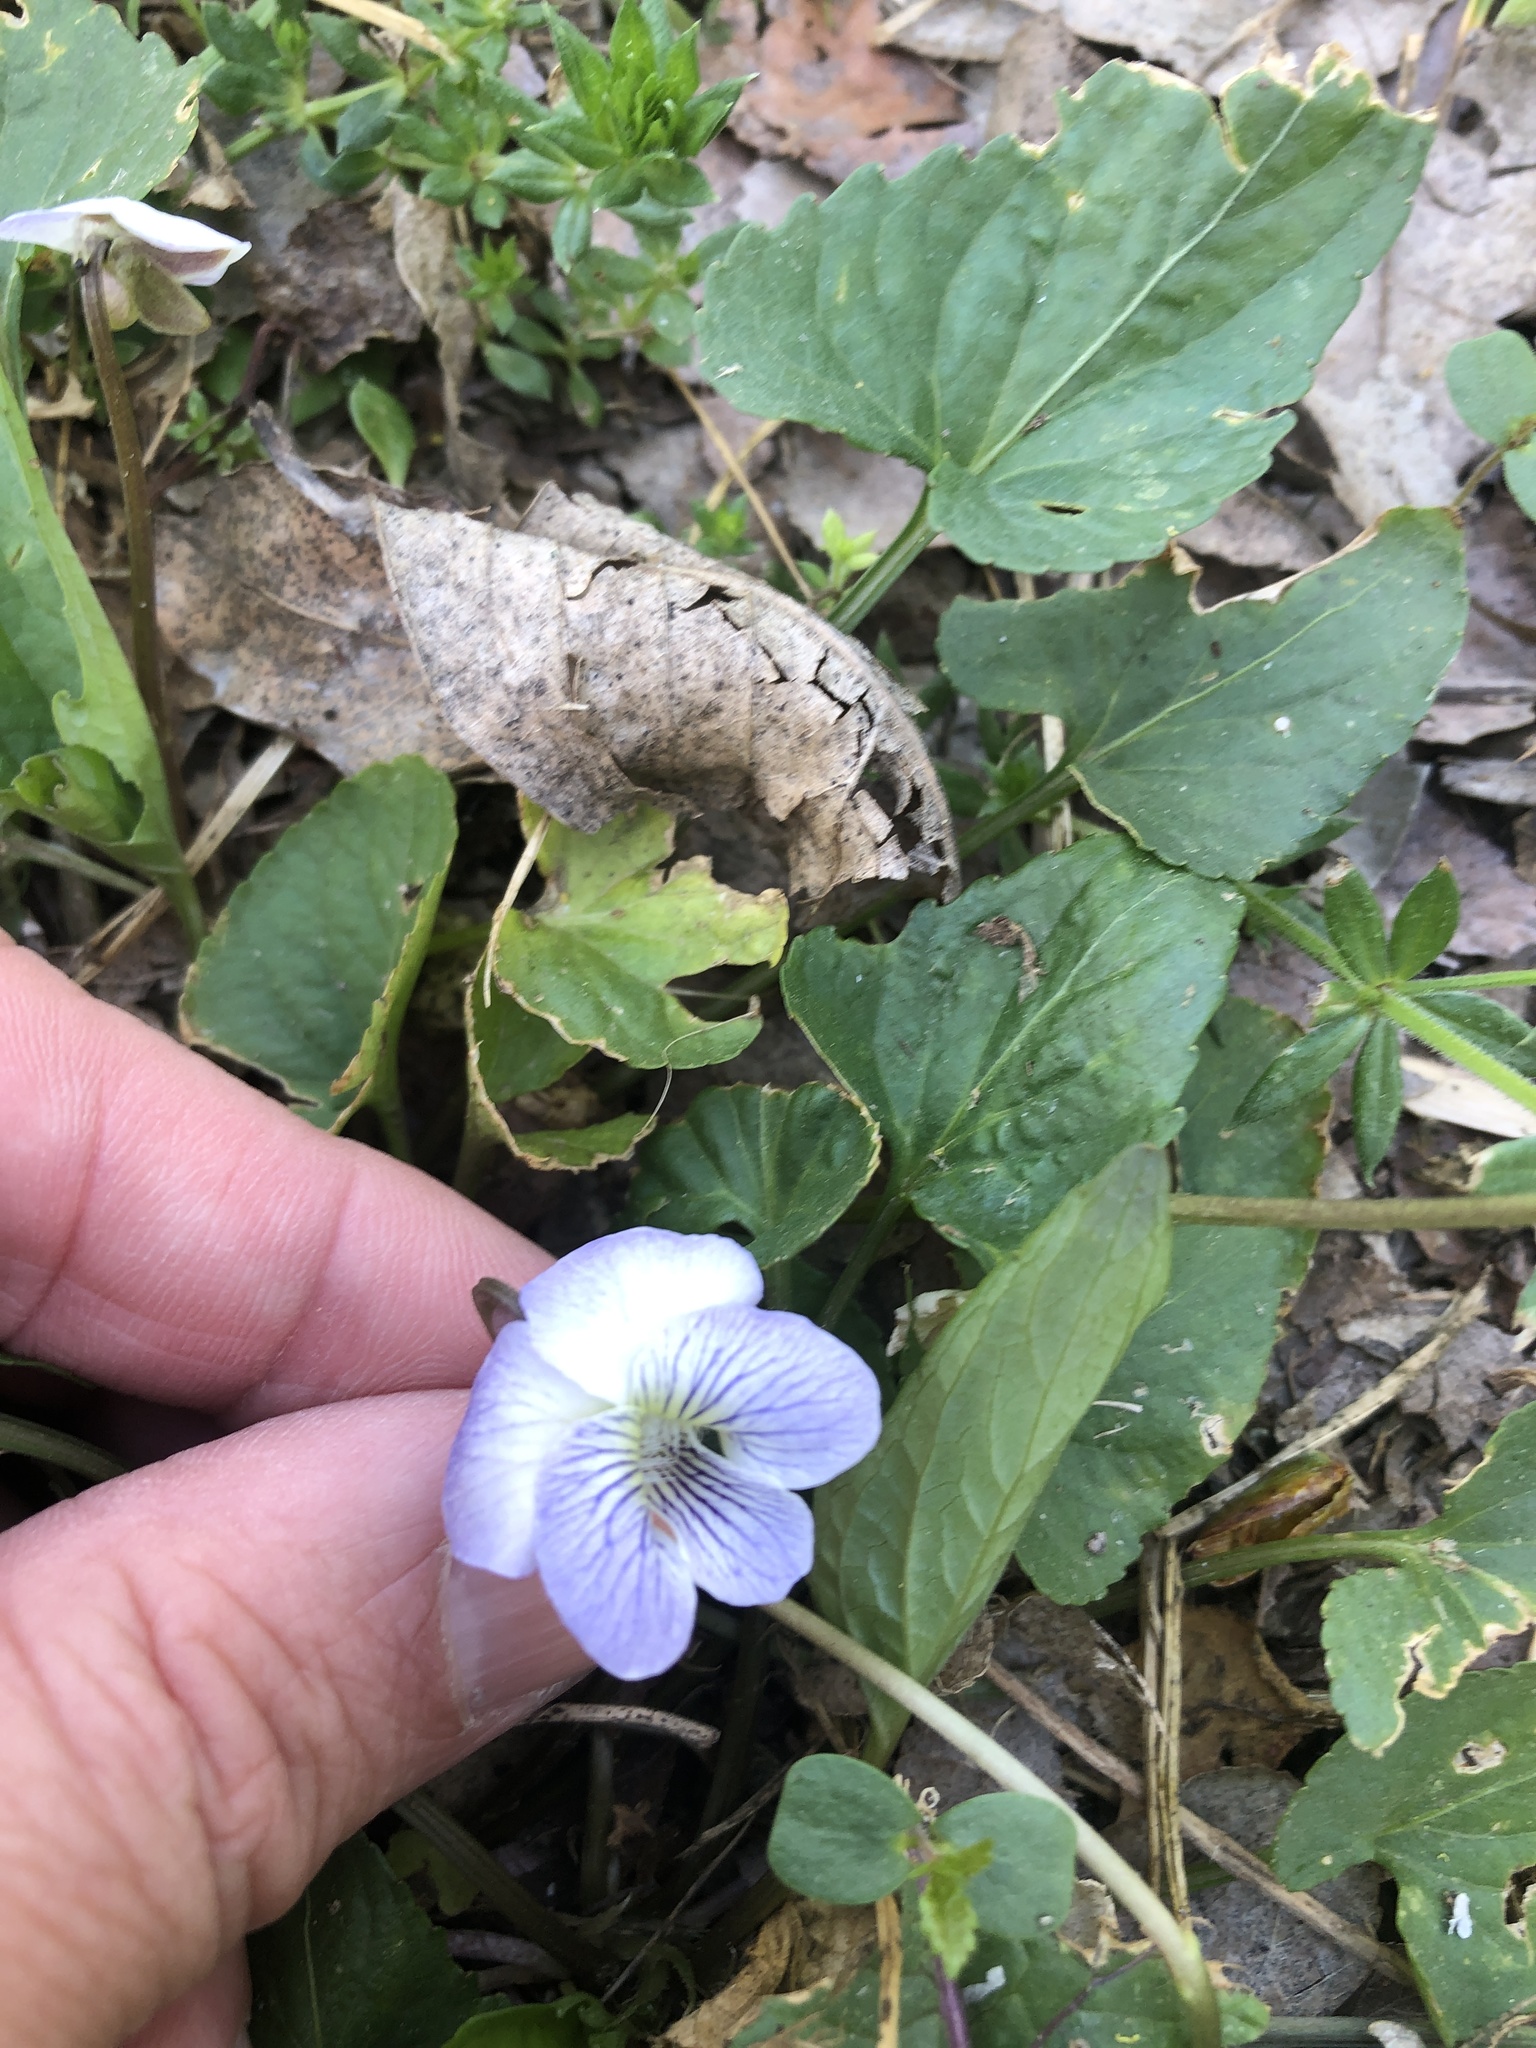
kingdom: Plantae
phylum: Tracheophyta
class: Magnoliopsida
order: Malpighiales
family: Violaceae
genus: Viola
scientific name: Viola missouriensis
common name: Missouri violet
